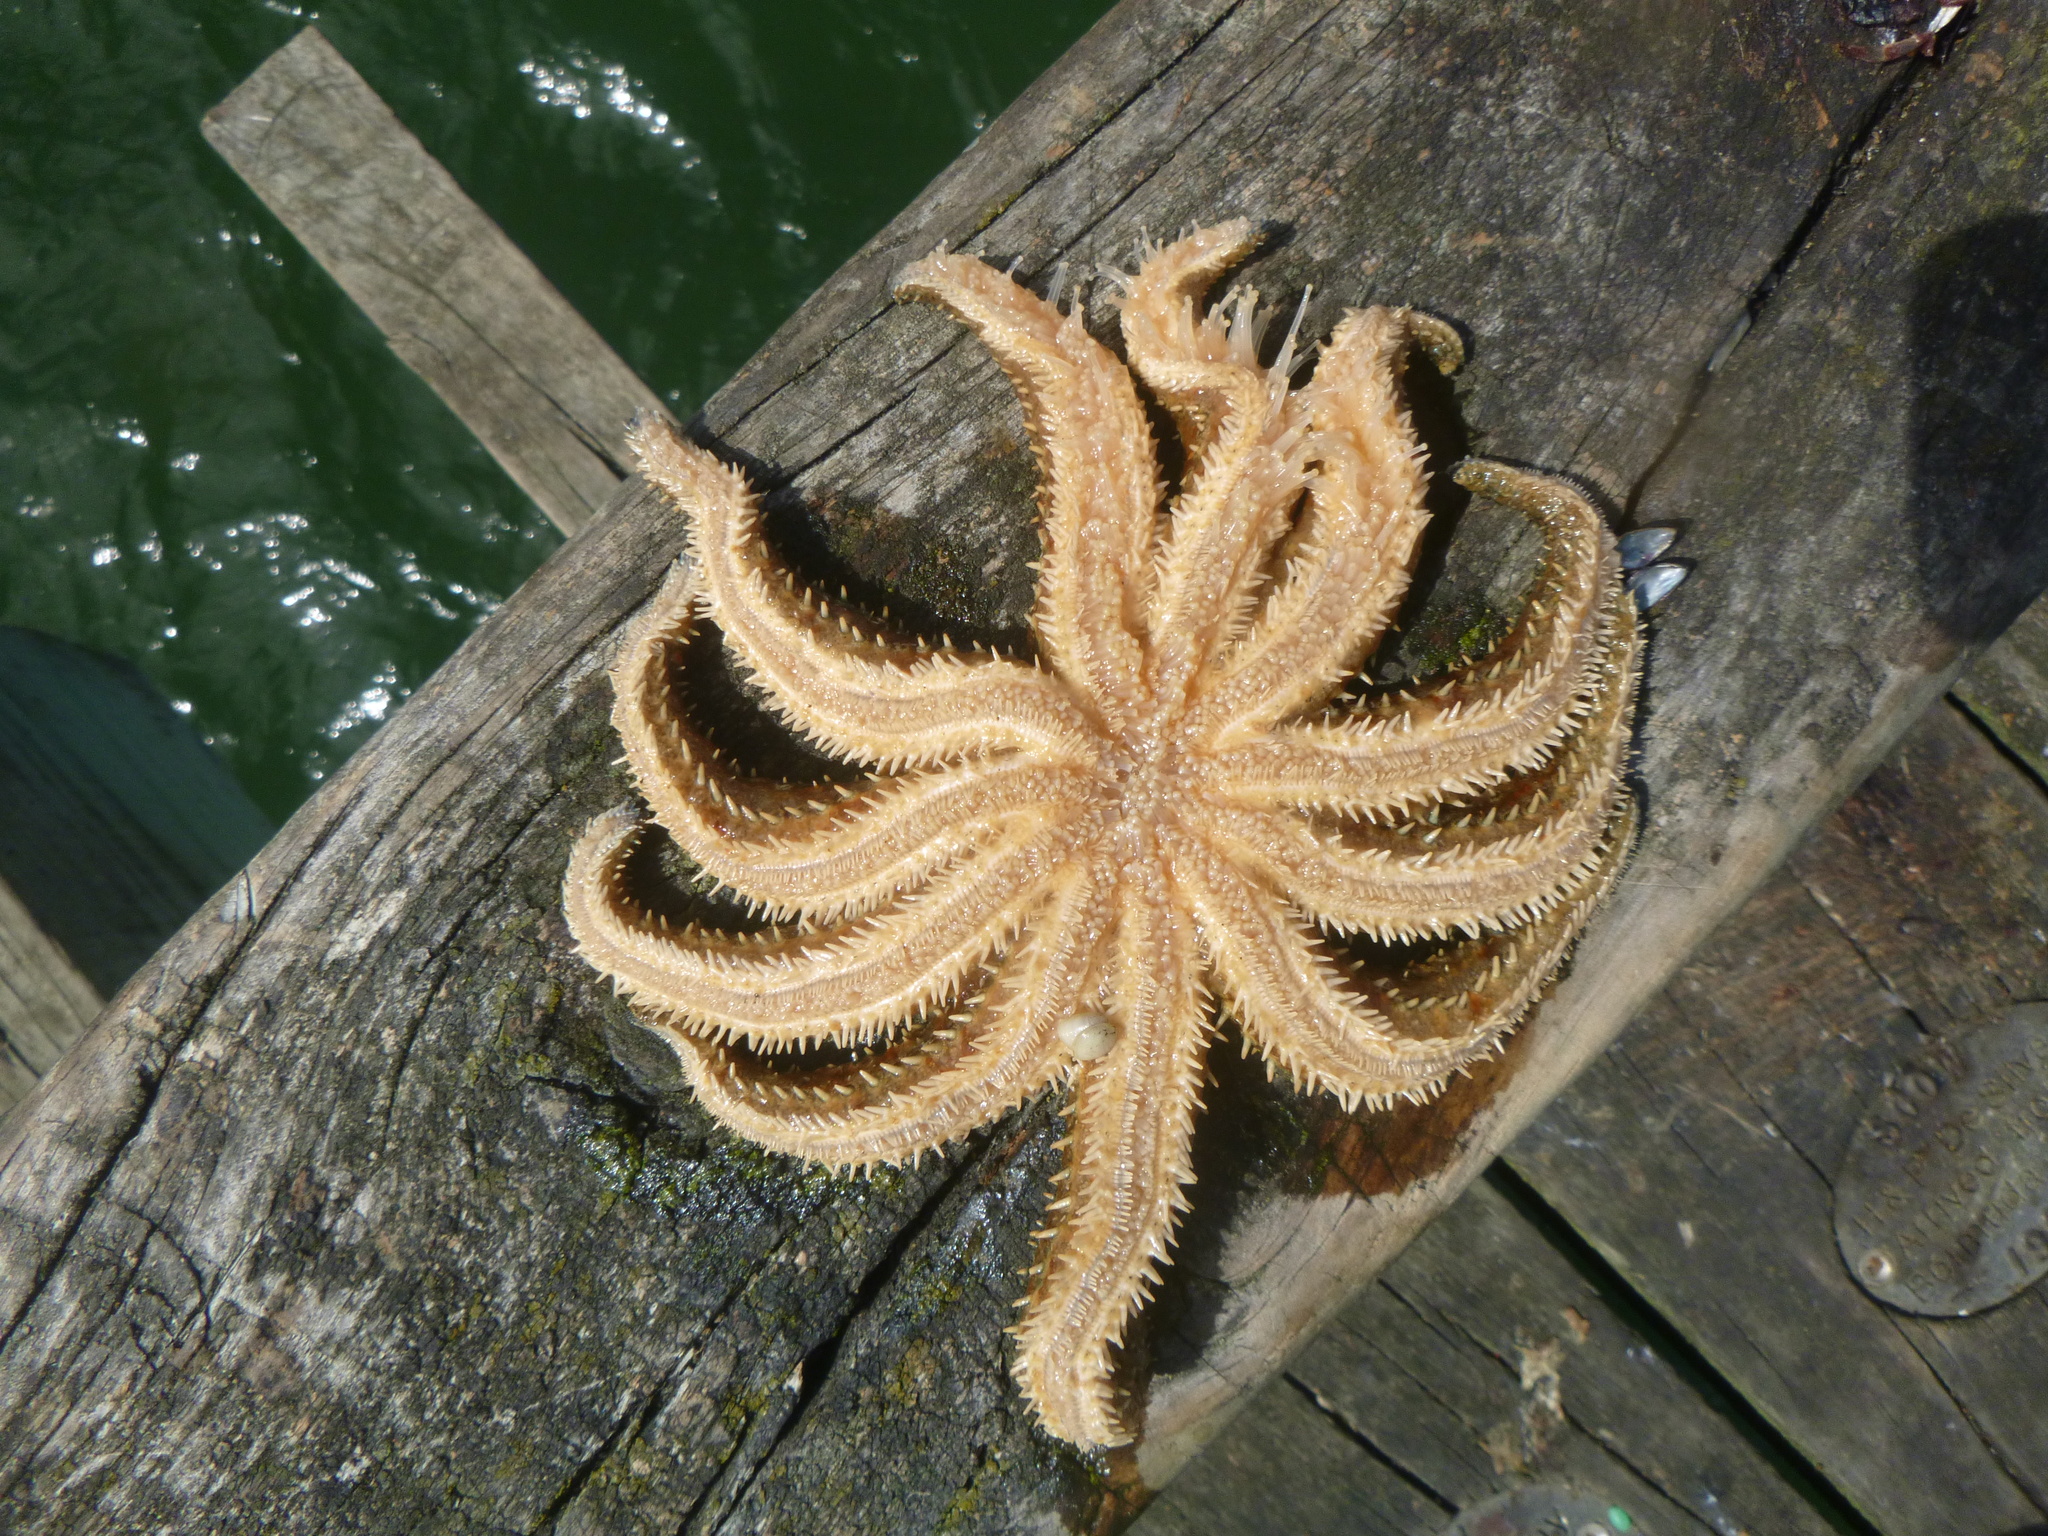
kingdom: Animalia
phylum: Echinodermata
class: Asteroidea
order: Forcipulatida
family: Asteriidae
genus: Coscinasterias
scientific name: Coscinasterias muricata
